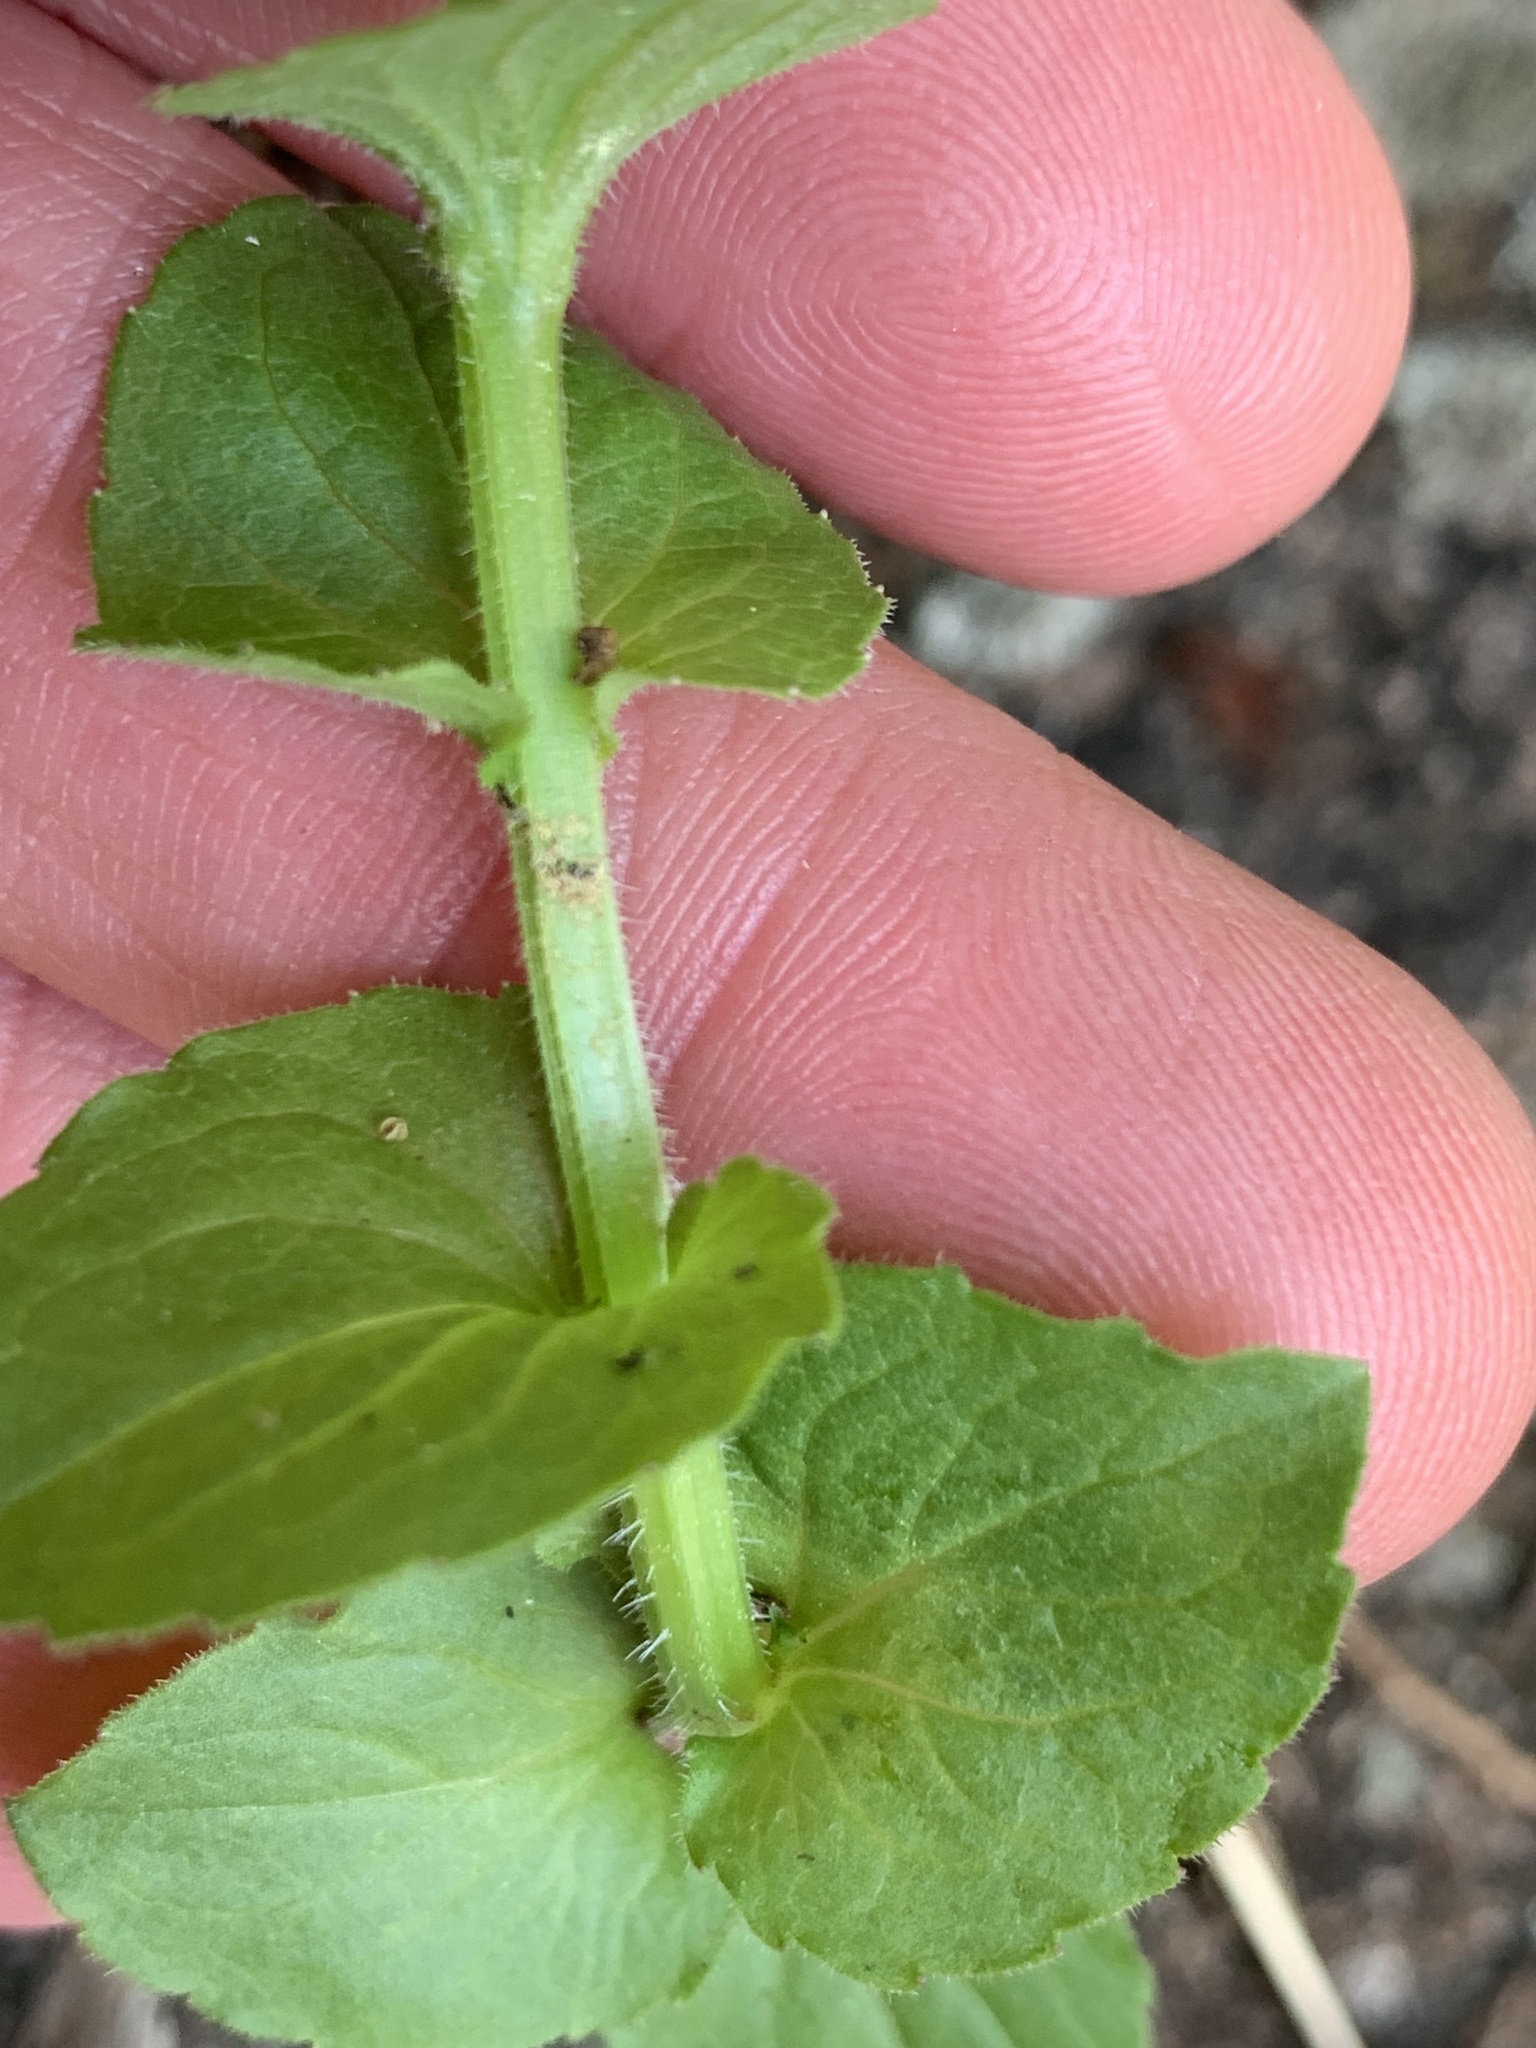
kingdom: Plantae
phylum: Tracheophyta
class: Magnoliopsida
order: Asterales
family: Campanulaceae
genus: Triodanis
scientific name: Triodanis perfoliata
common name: Clasping venus' looking-glass
